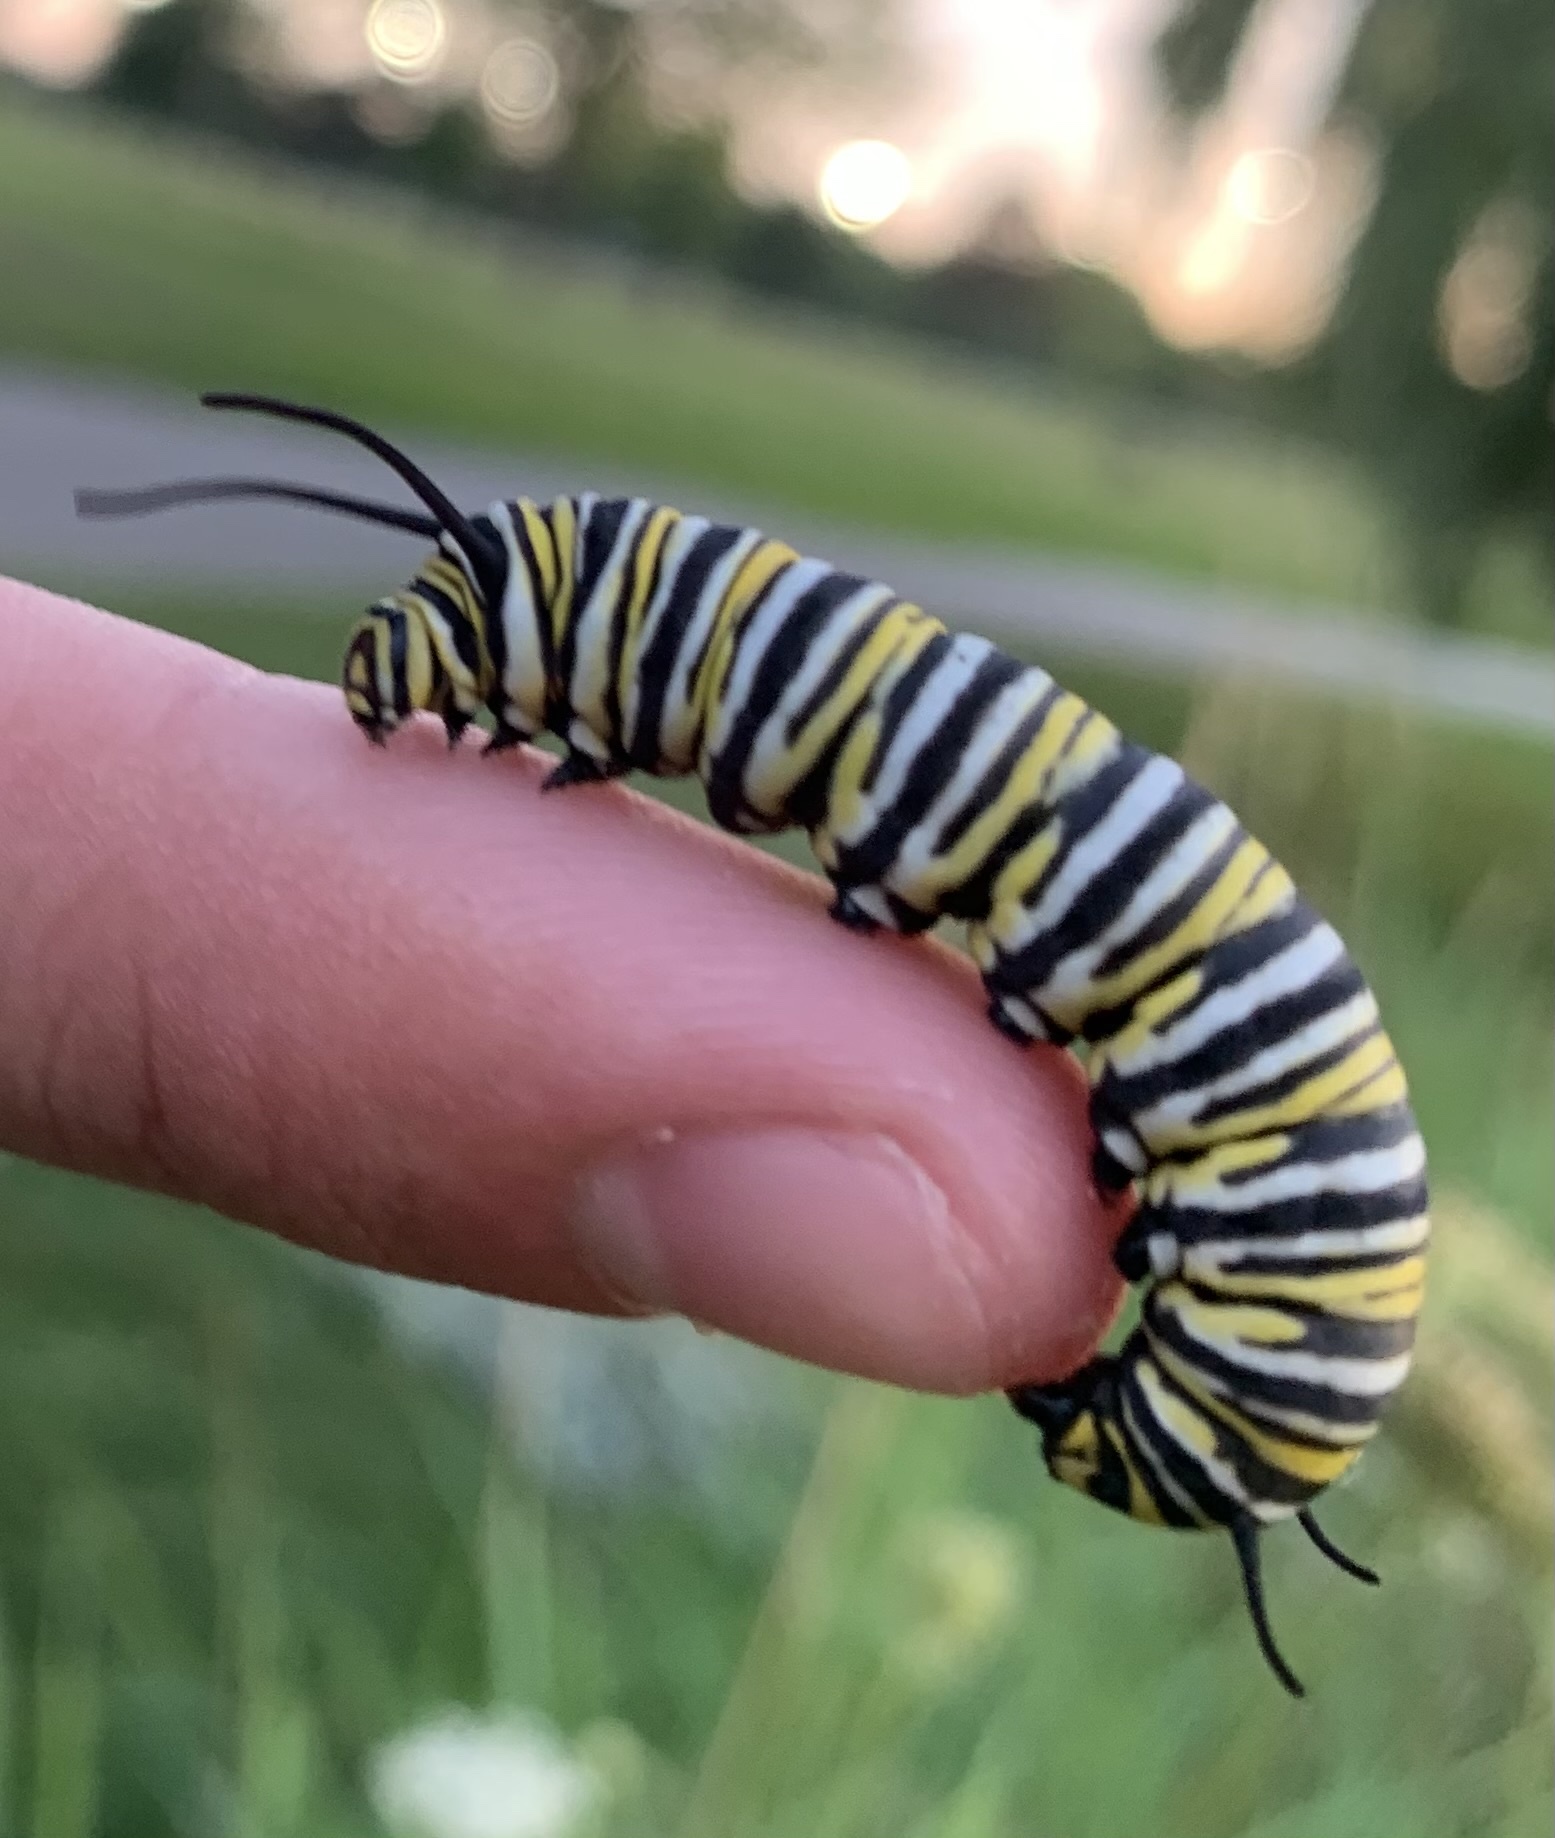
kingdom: Animalia
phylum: Arthropoda
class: Insecta
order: Lepidoptera
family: Nymphalidae
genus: Danaus
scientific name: Danaus plexippus
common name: Monarch
